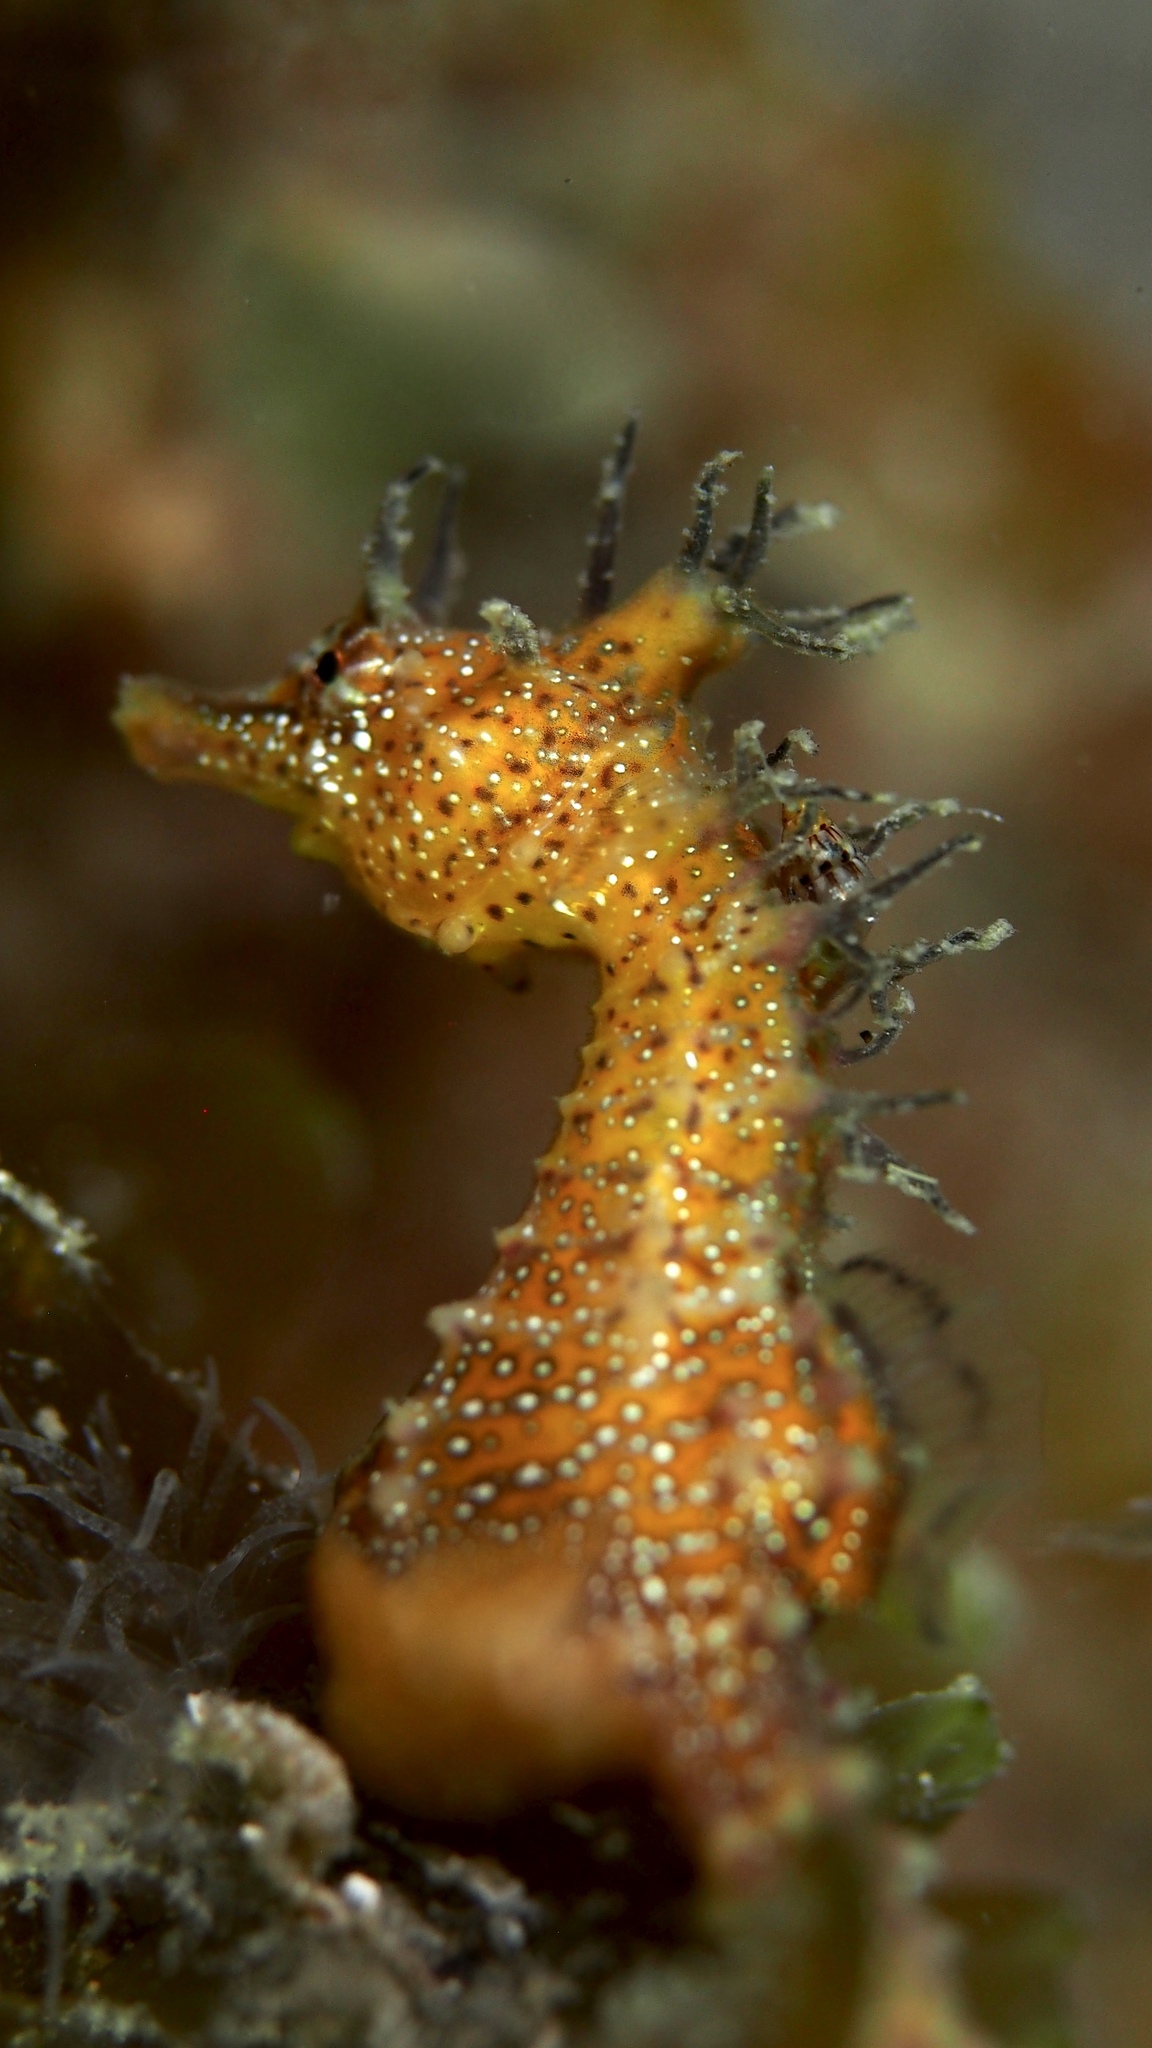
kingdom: Animalia
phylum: Chordata
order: Syngnathiformes
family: Syngnathidae
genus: Hippocampus
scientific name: Hippocampus breviceps
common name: Knobby seahorse
